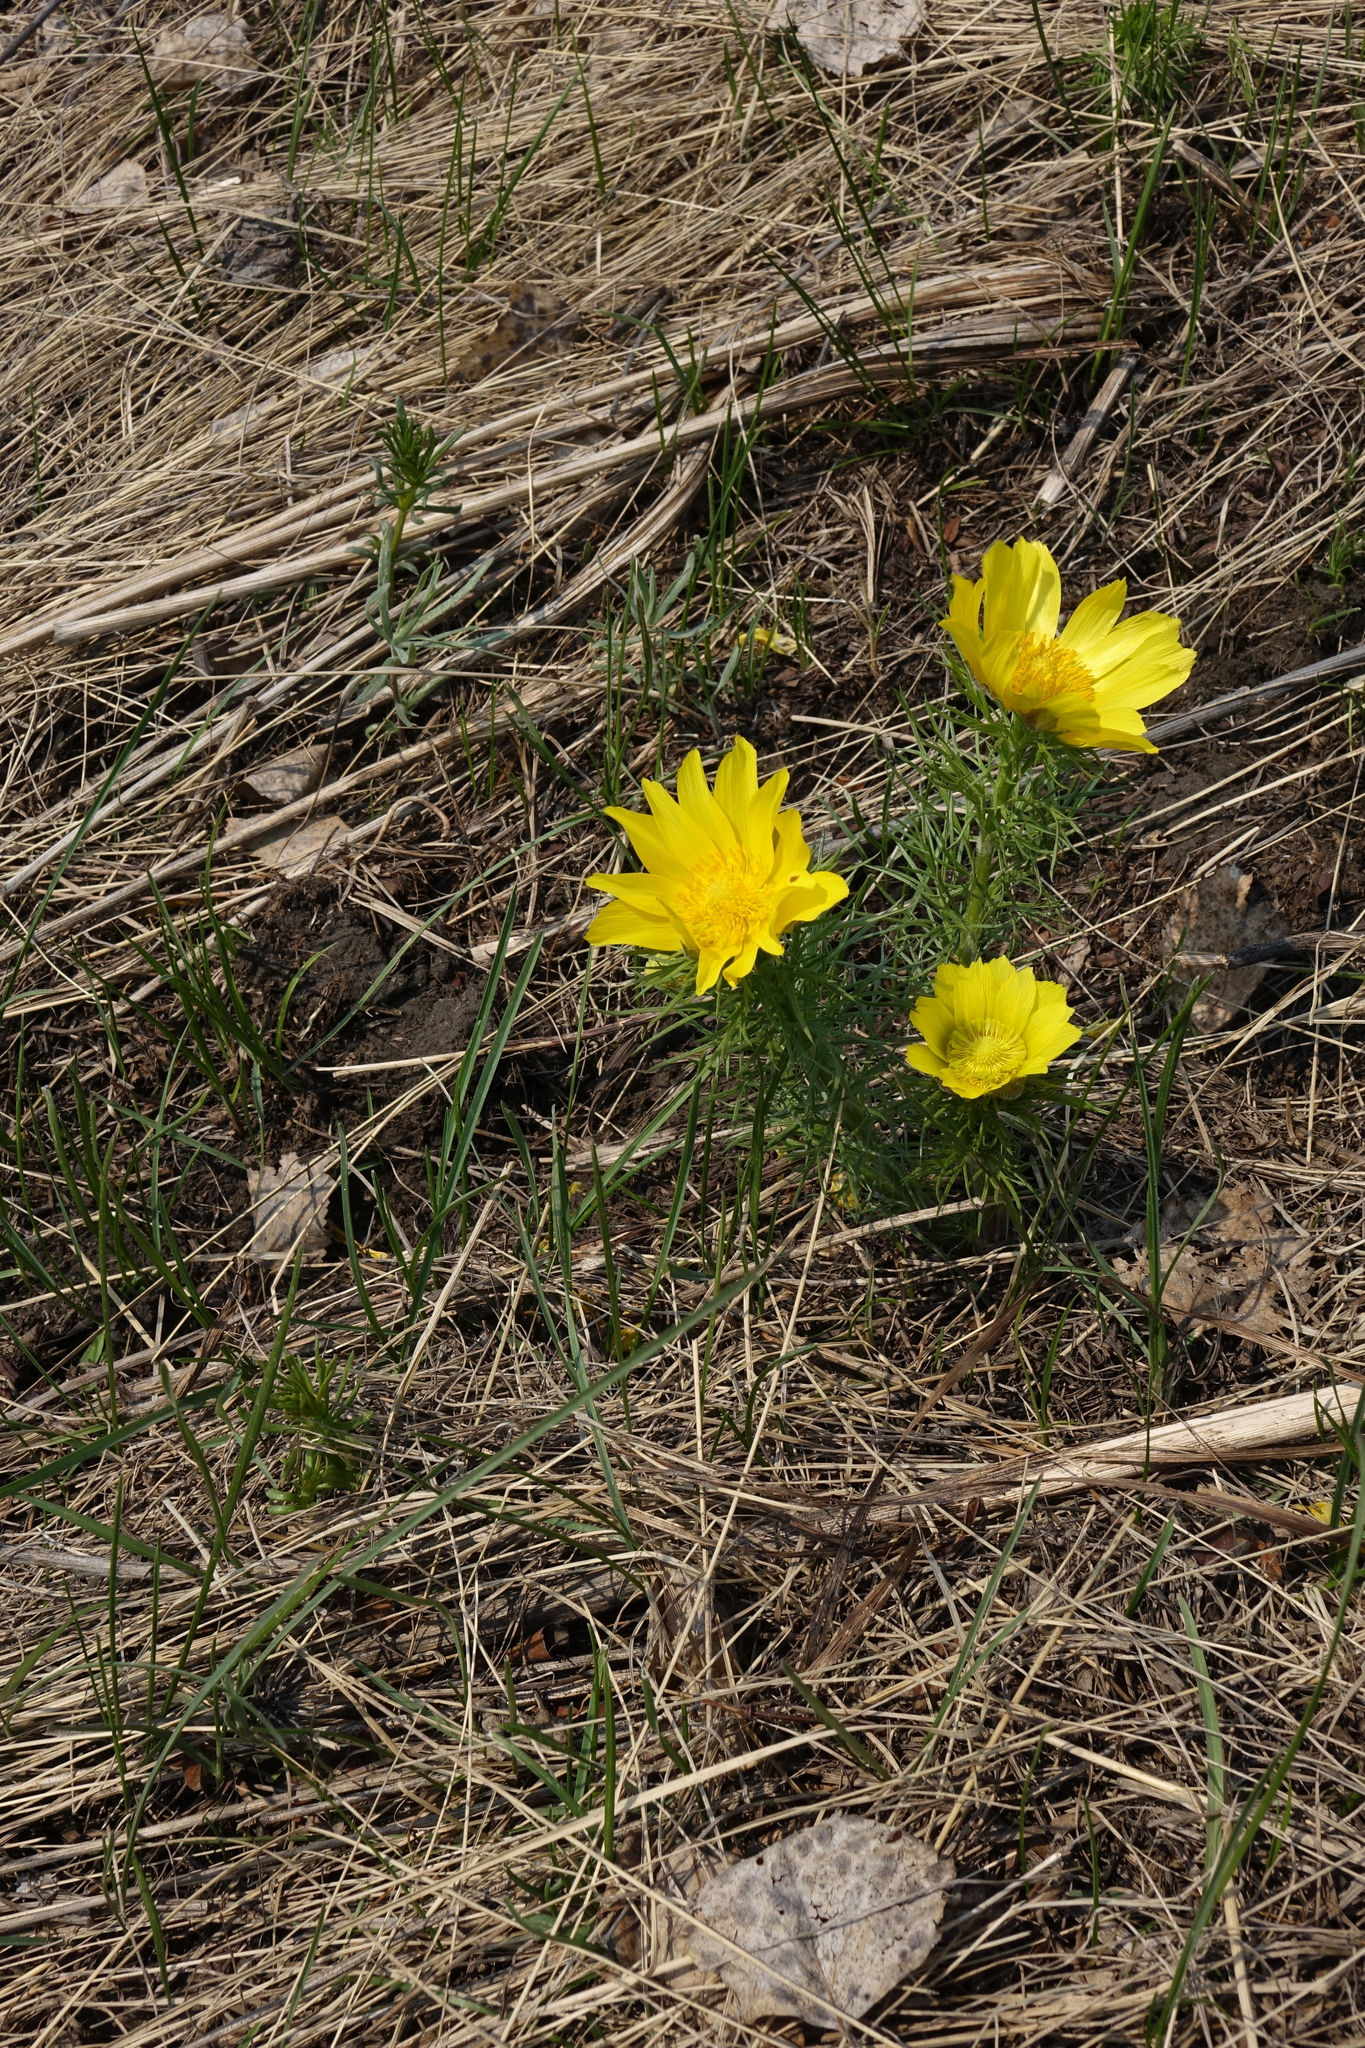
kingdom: Plantae
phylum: Tracheophyta
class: Magnoliopsida
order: Ranunculales
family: Ranunculaceae
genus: Adonis
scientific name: Adonis vernalis
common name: Yellow pheasants-eye
